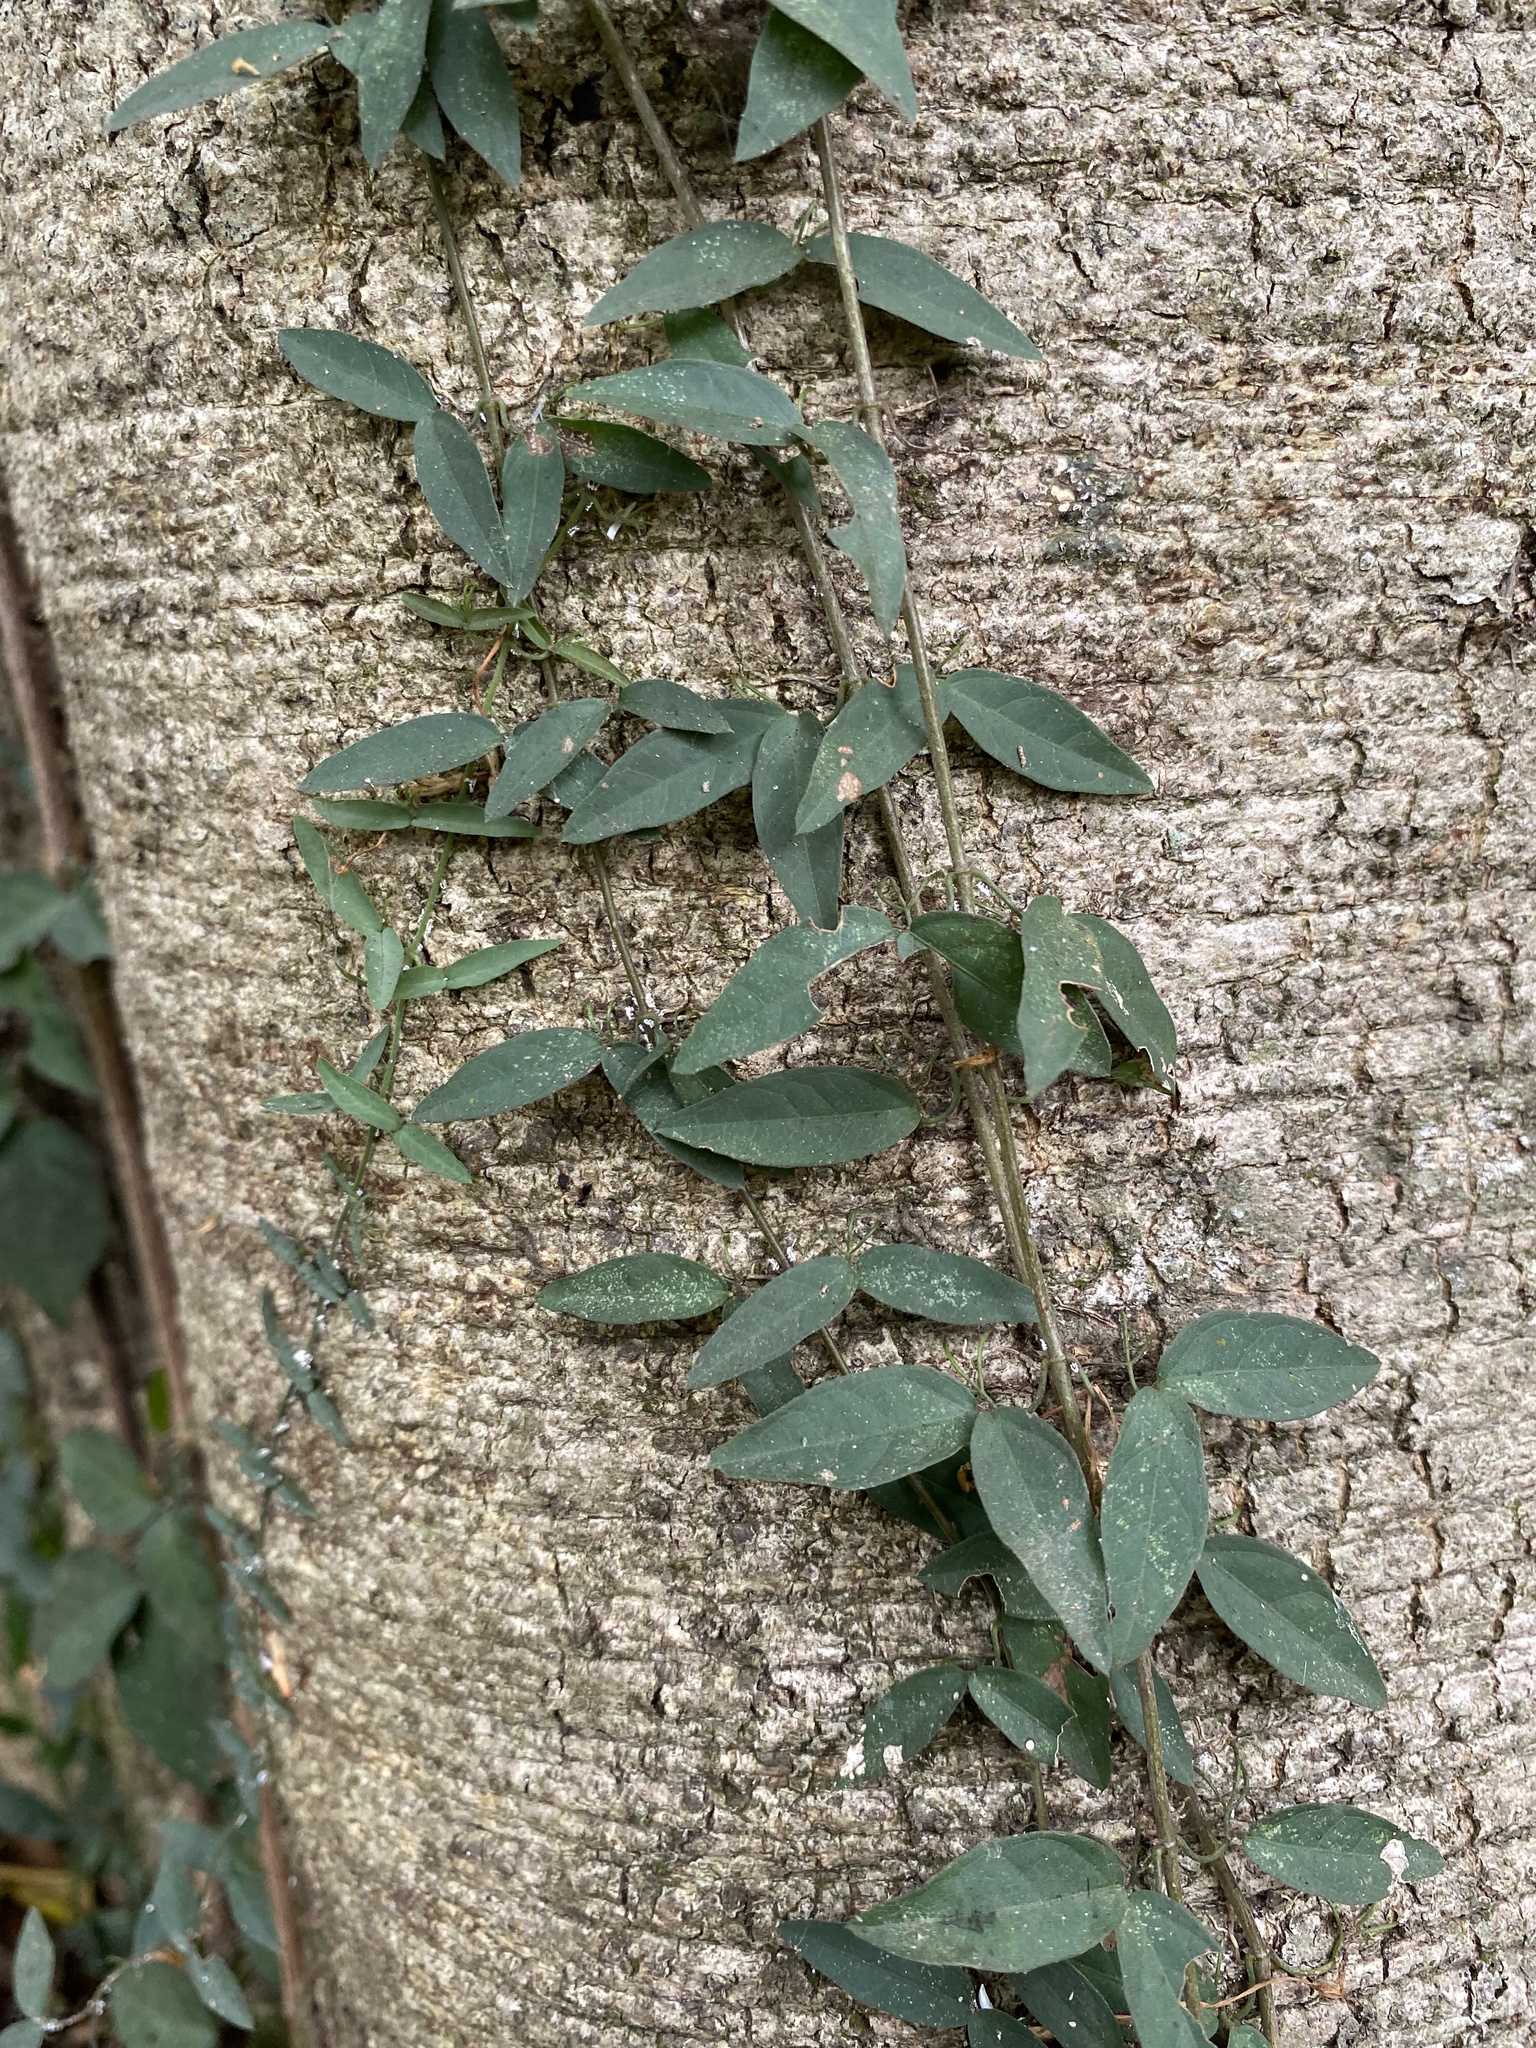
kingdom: Plantae
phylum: Tracheophyta
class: Magnoliopsida
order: Lamiales
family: Bignoniaceae
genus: Dolichandra
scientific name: Dolichandra unguis-cati
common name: Catclaw vine
